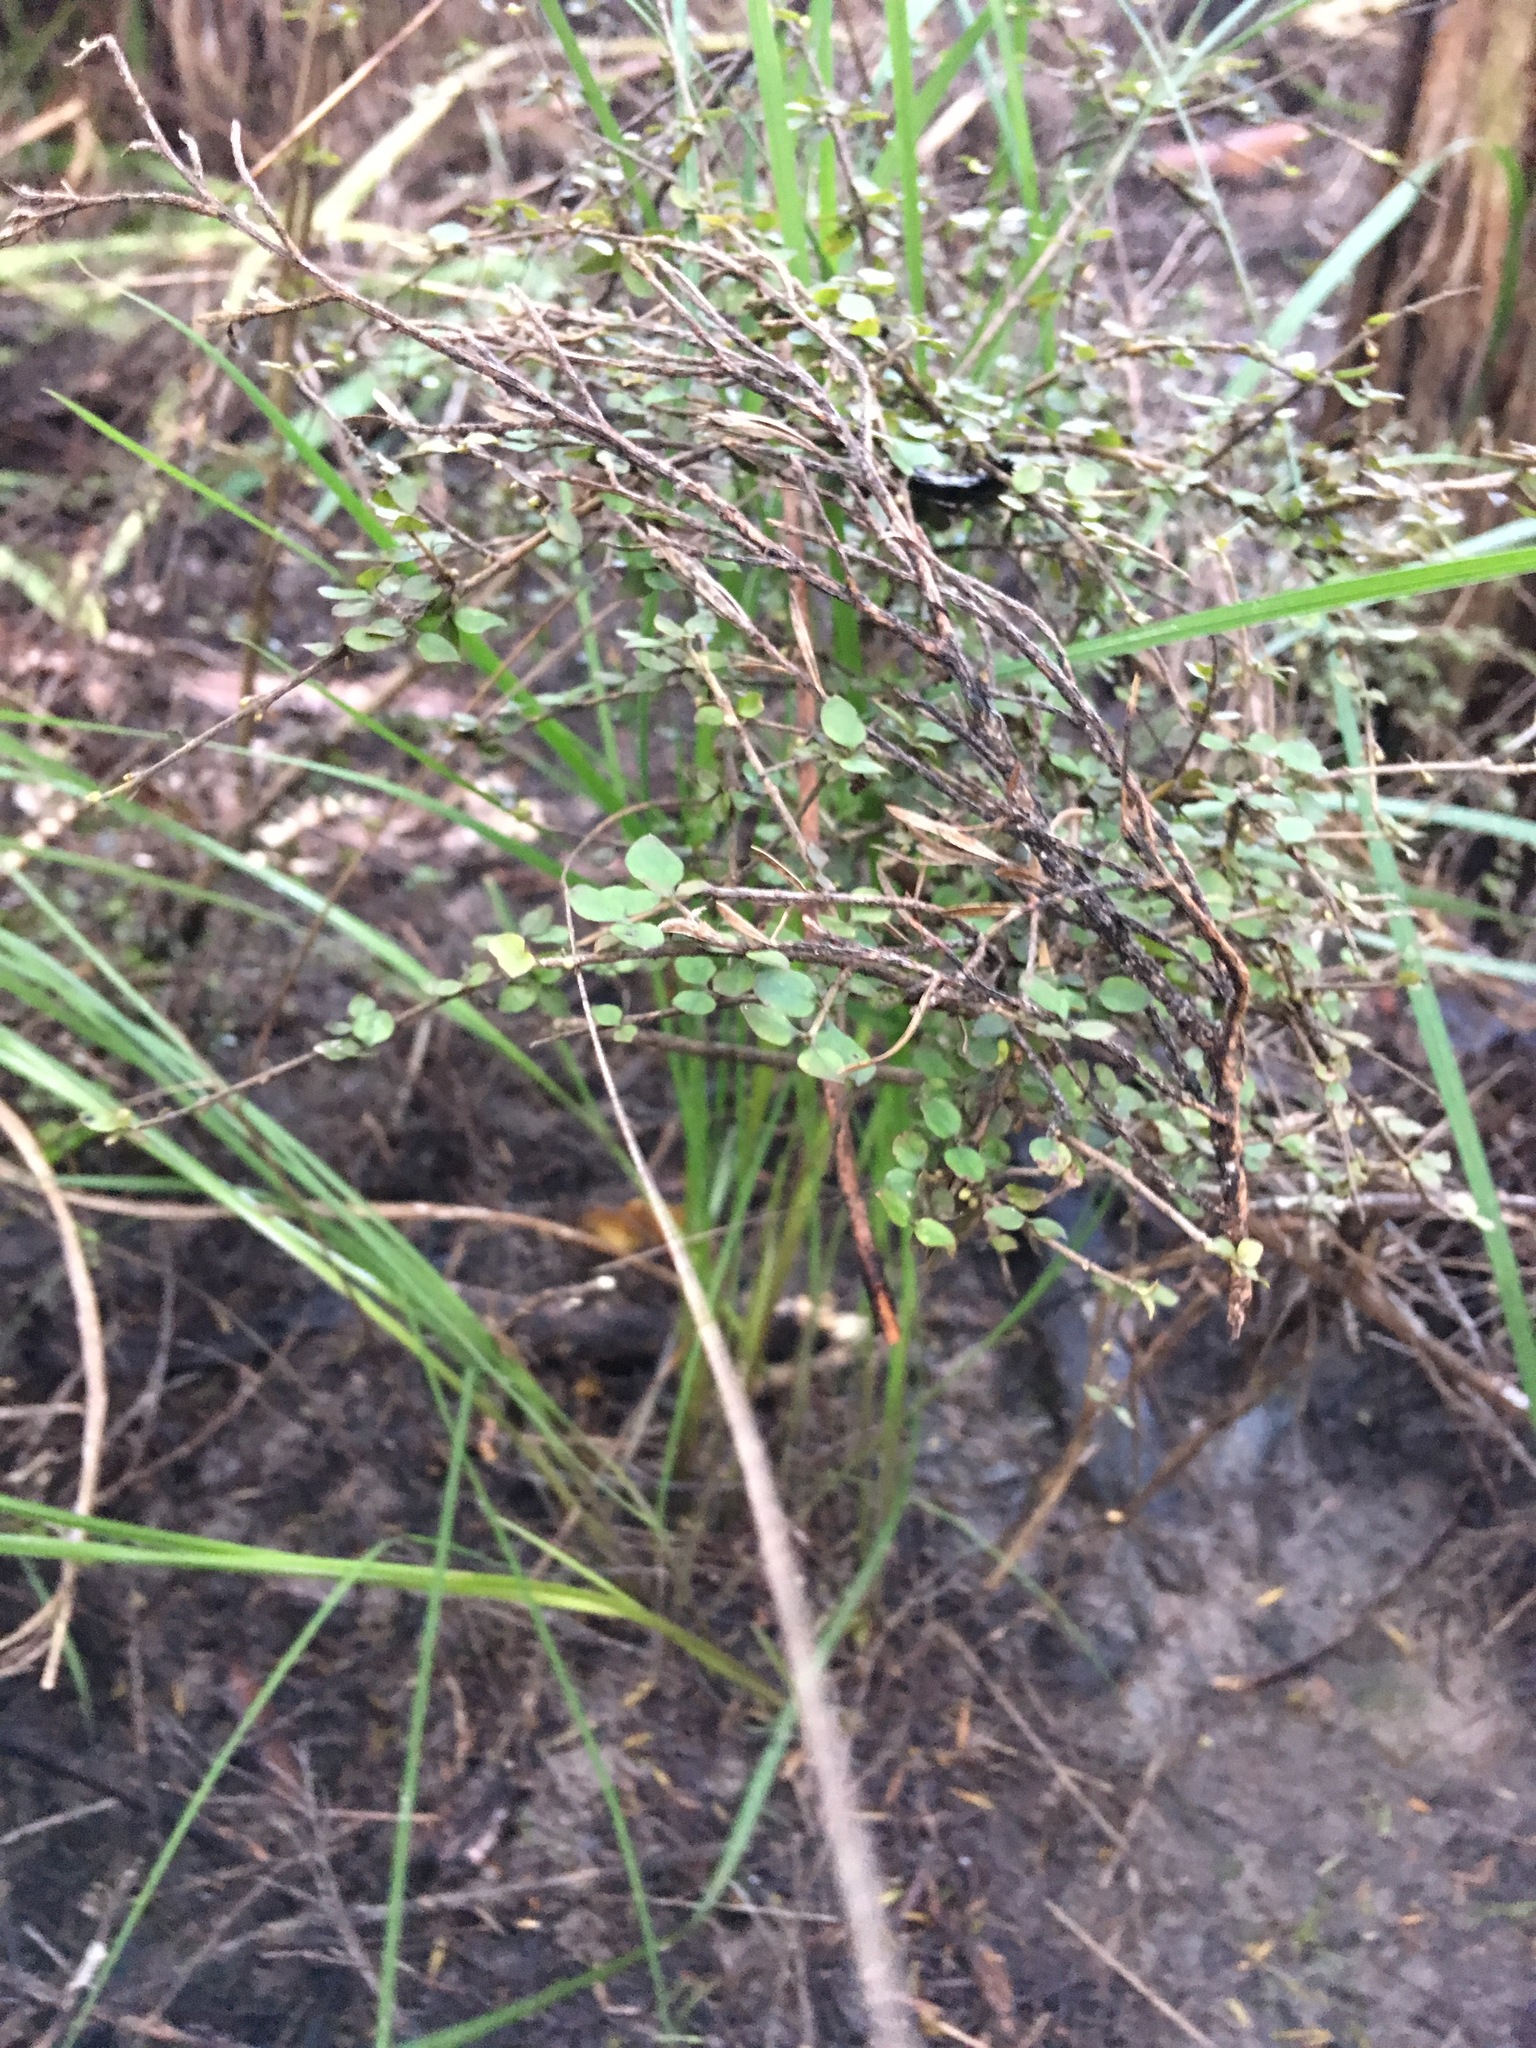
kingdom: Plantae
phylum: Tracheophyta
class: Magnoliopsida
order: Gentianales
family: Rubiaceae
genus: Coprosma
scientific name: Coprosma rhamnoides
